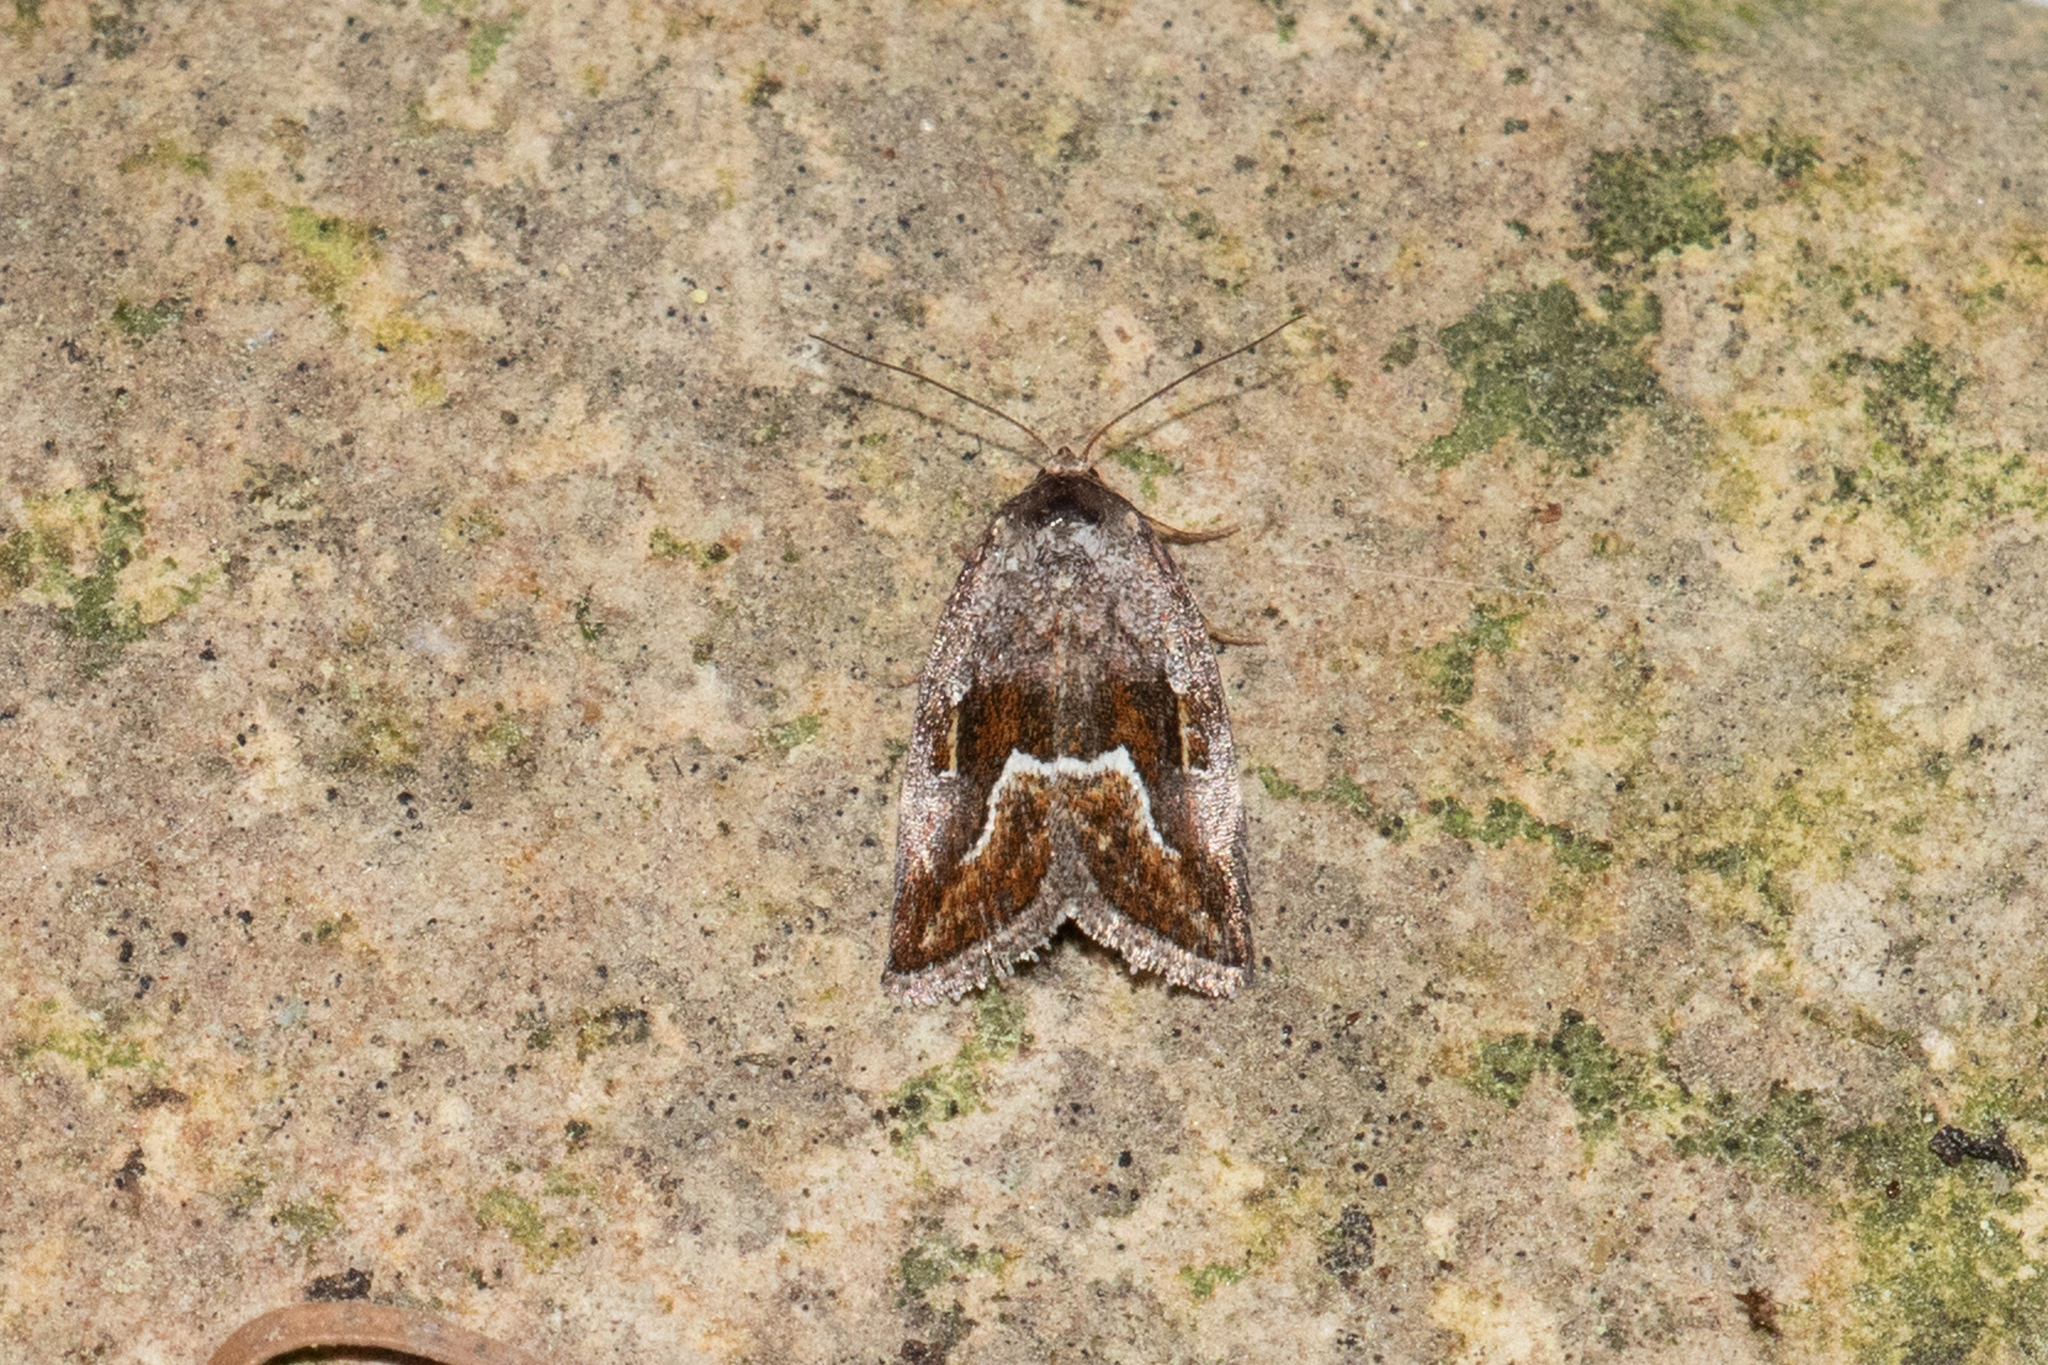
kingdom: Animalia
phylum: Arthropoda
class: Insecta
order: Lepidoptera
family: Noctuidae
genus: Deltote
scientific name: Deltote bellicula
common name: Bog glyph
